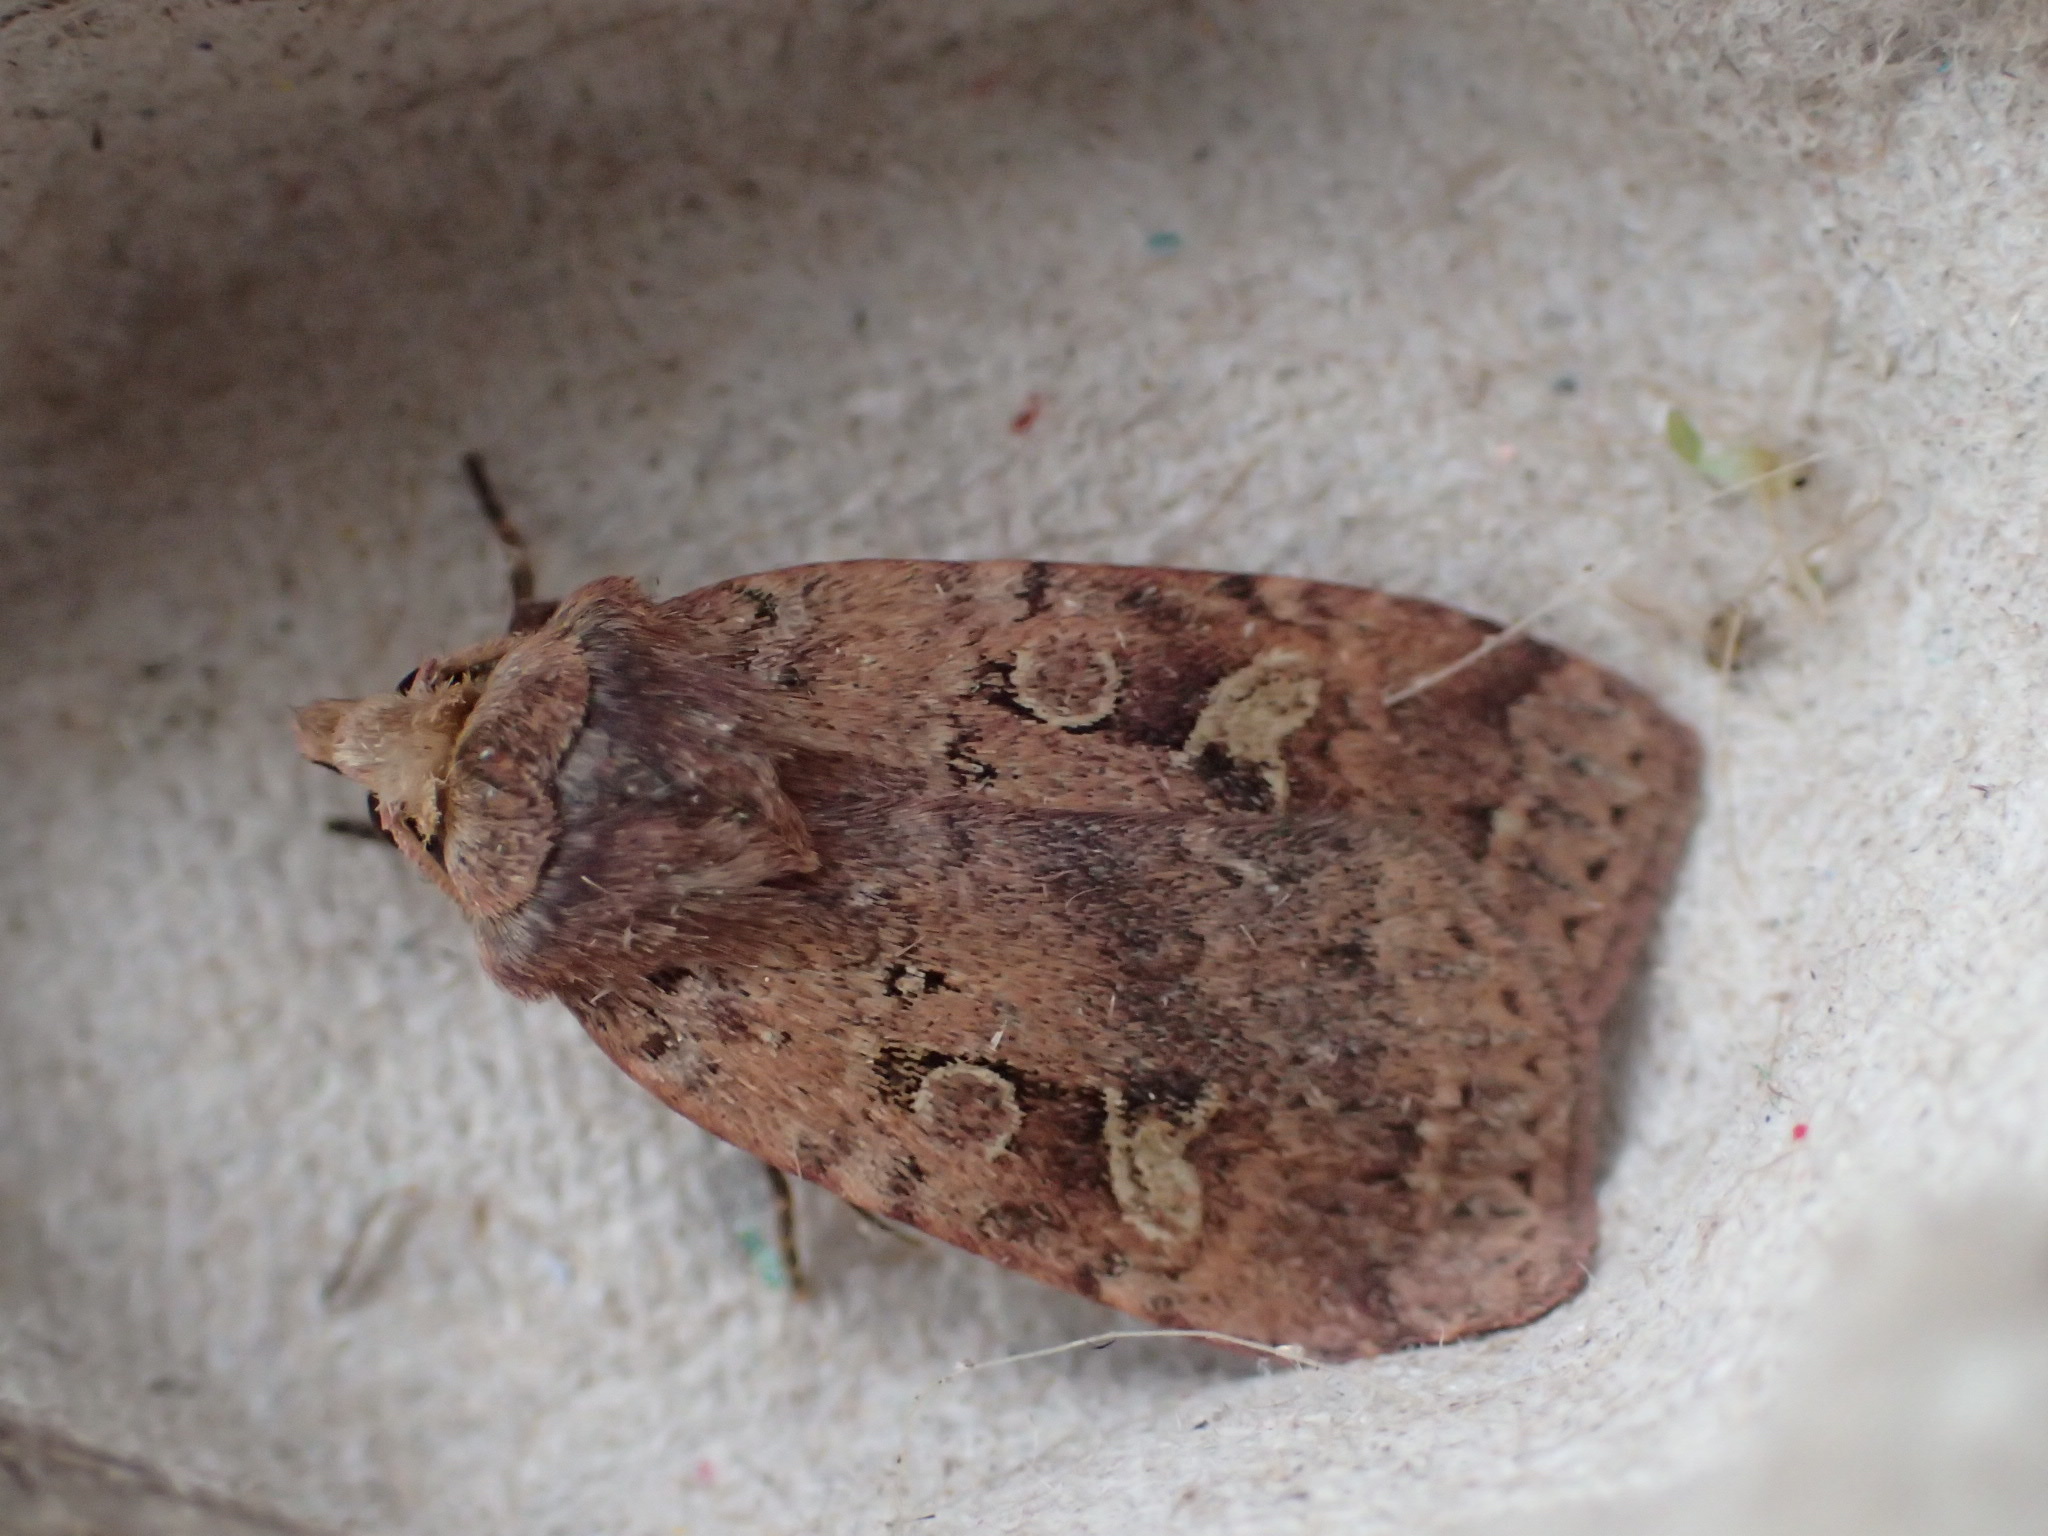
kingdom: Animalia
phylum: Arthropoda
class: Insecta
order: Lepidoptera
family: Noctuidae
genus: Diarsia
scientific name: Diarsia jucunda
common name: Smaller pinkish dart
